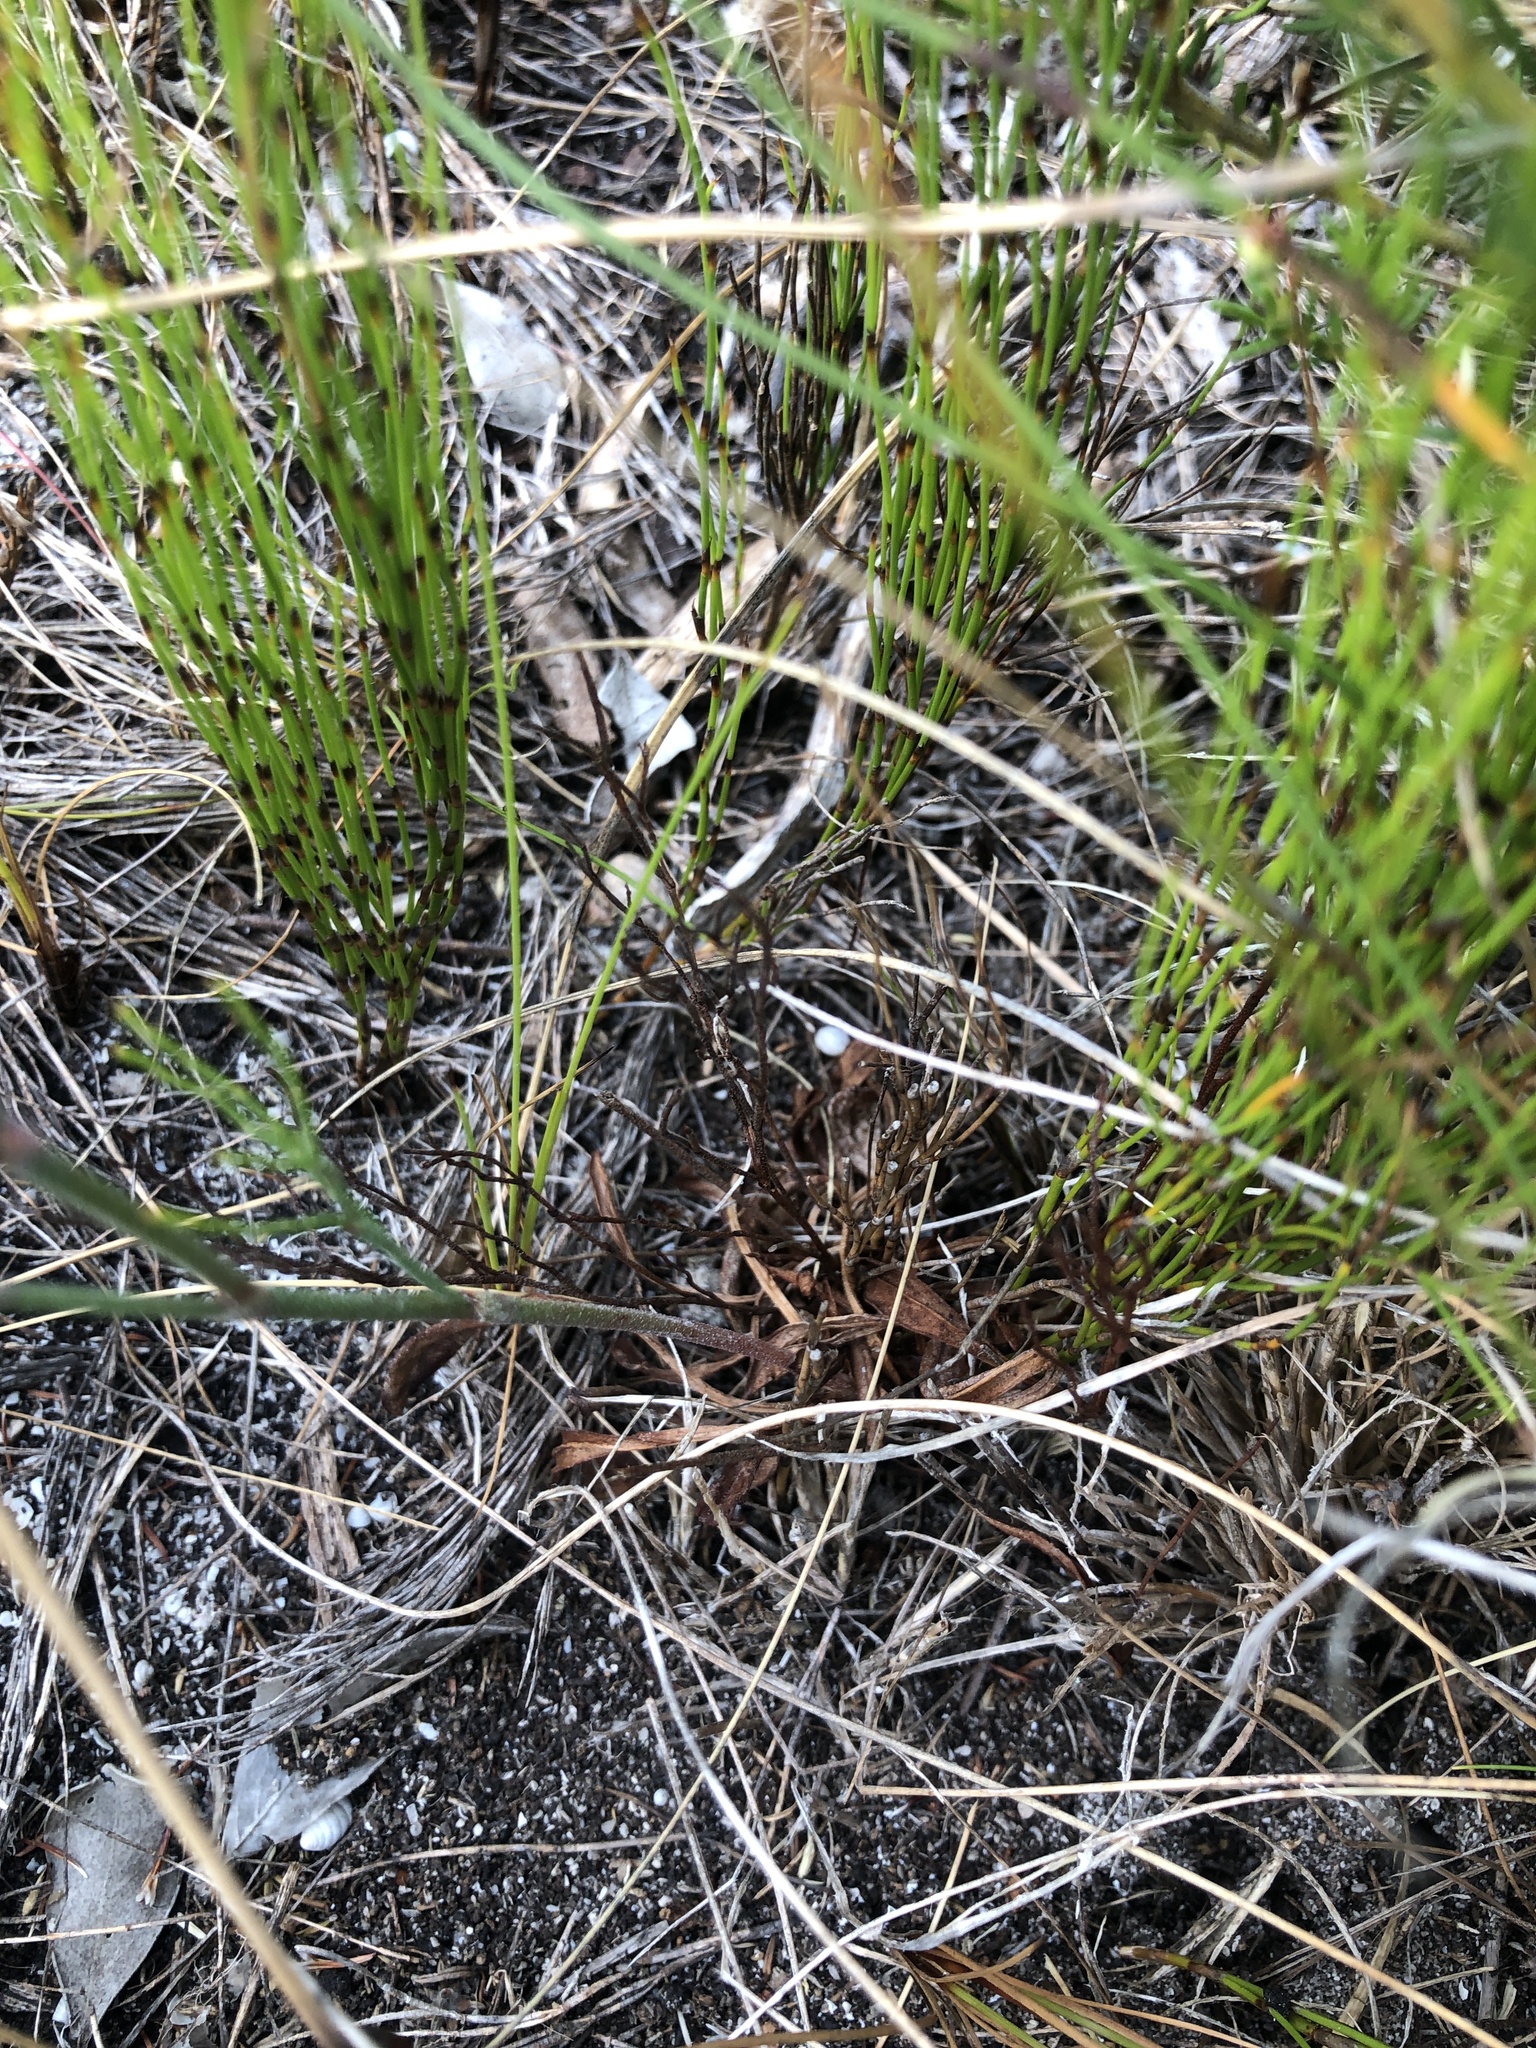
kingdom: Plantae
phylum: Tracheophyta
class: Magnoliopsida
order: Caryophyllales
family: Plumbaginaceae
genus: Limonium
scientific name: Limonium scabrum
